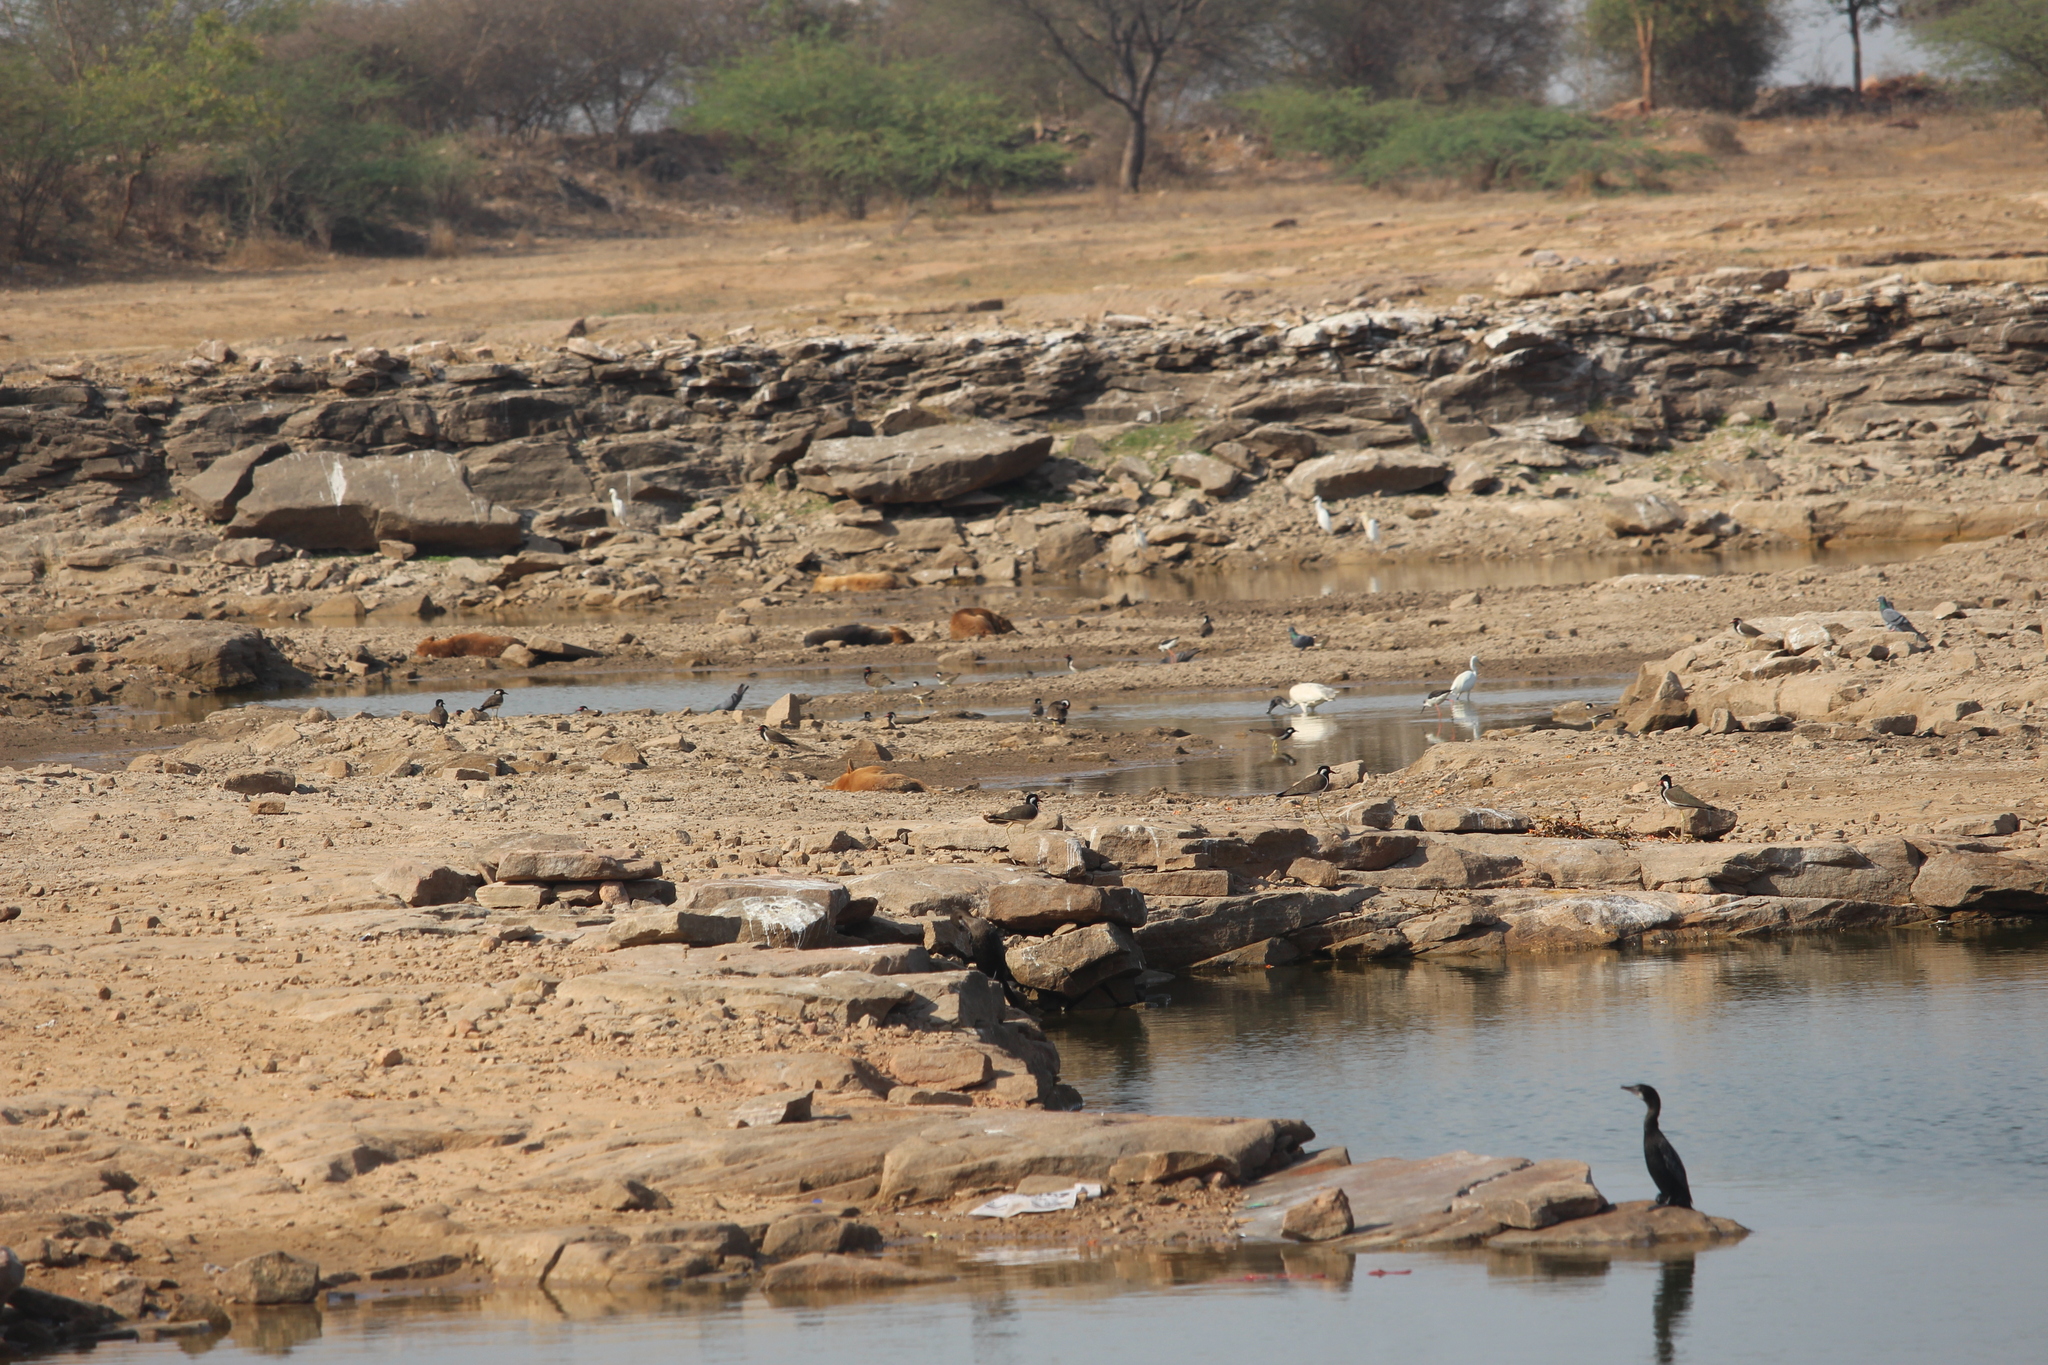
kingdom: Animalia
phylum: Chordata
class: Aves
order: Suliformes
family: Phalacrocoracidae
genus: Microcarbo
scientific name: Microcarbo niger
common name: Little cormorant
